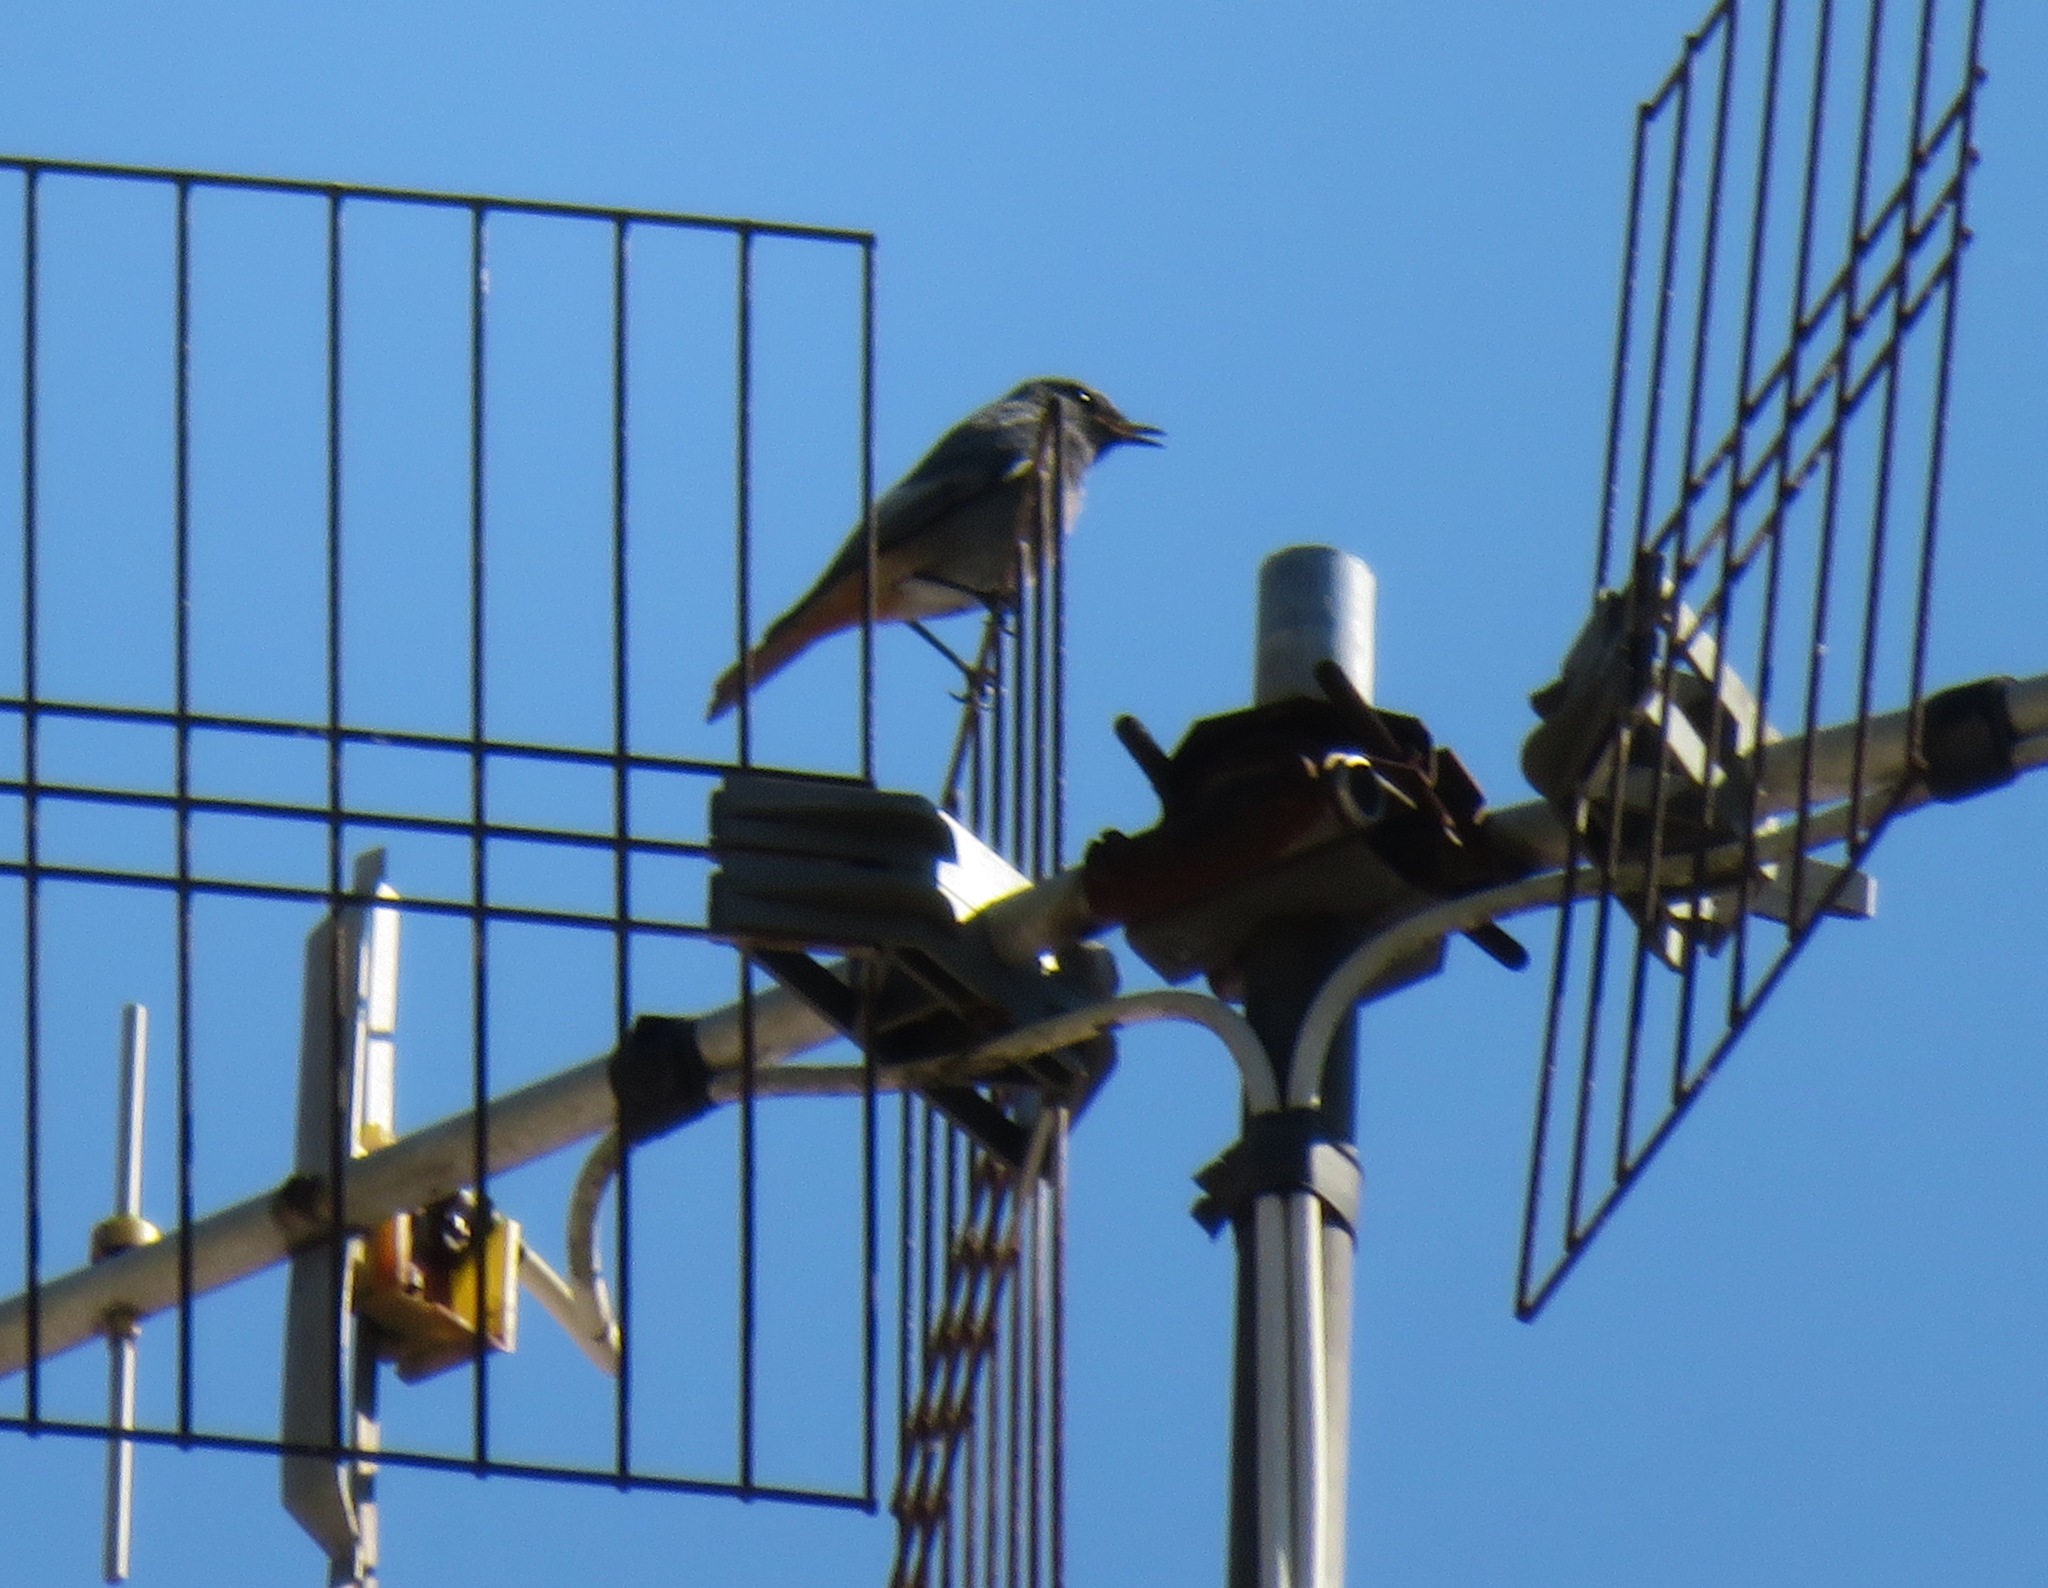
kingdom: Animalia
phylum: Chordata
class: Aves
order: Passeriformes
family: Muscicapidae
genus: Phoenicurus
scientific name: Phoenicurus ochruros
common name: Black redstart
